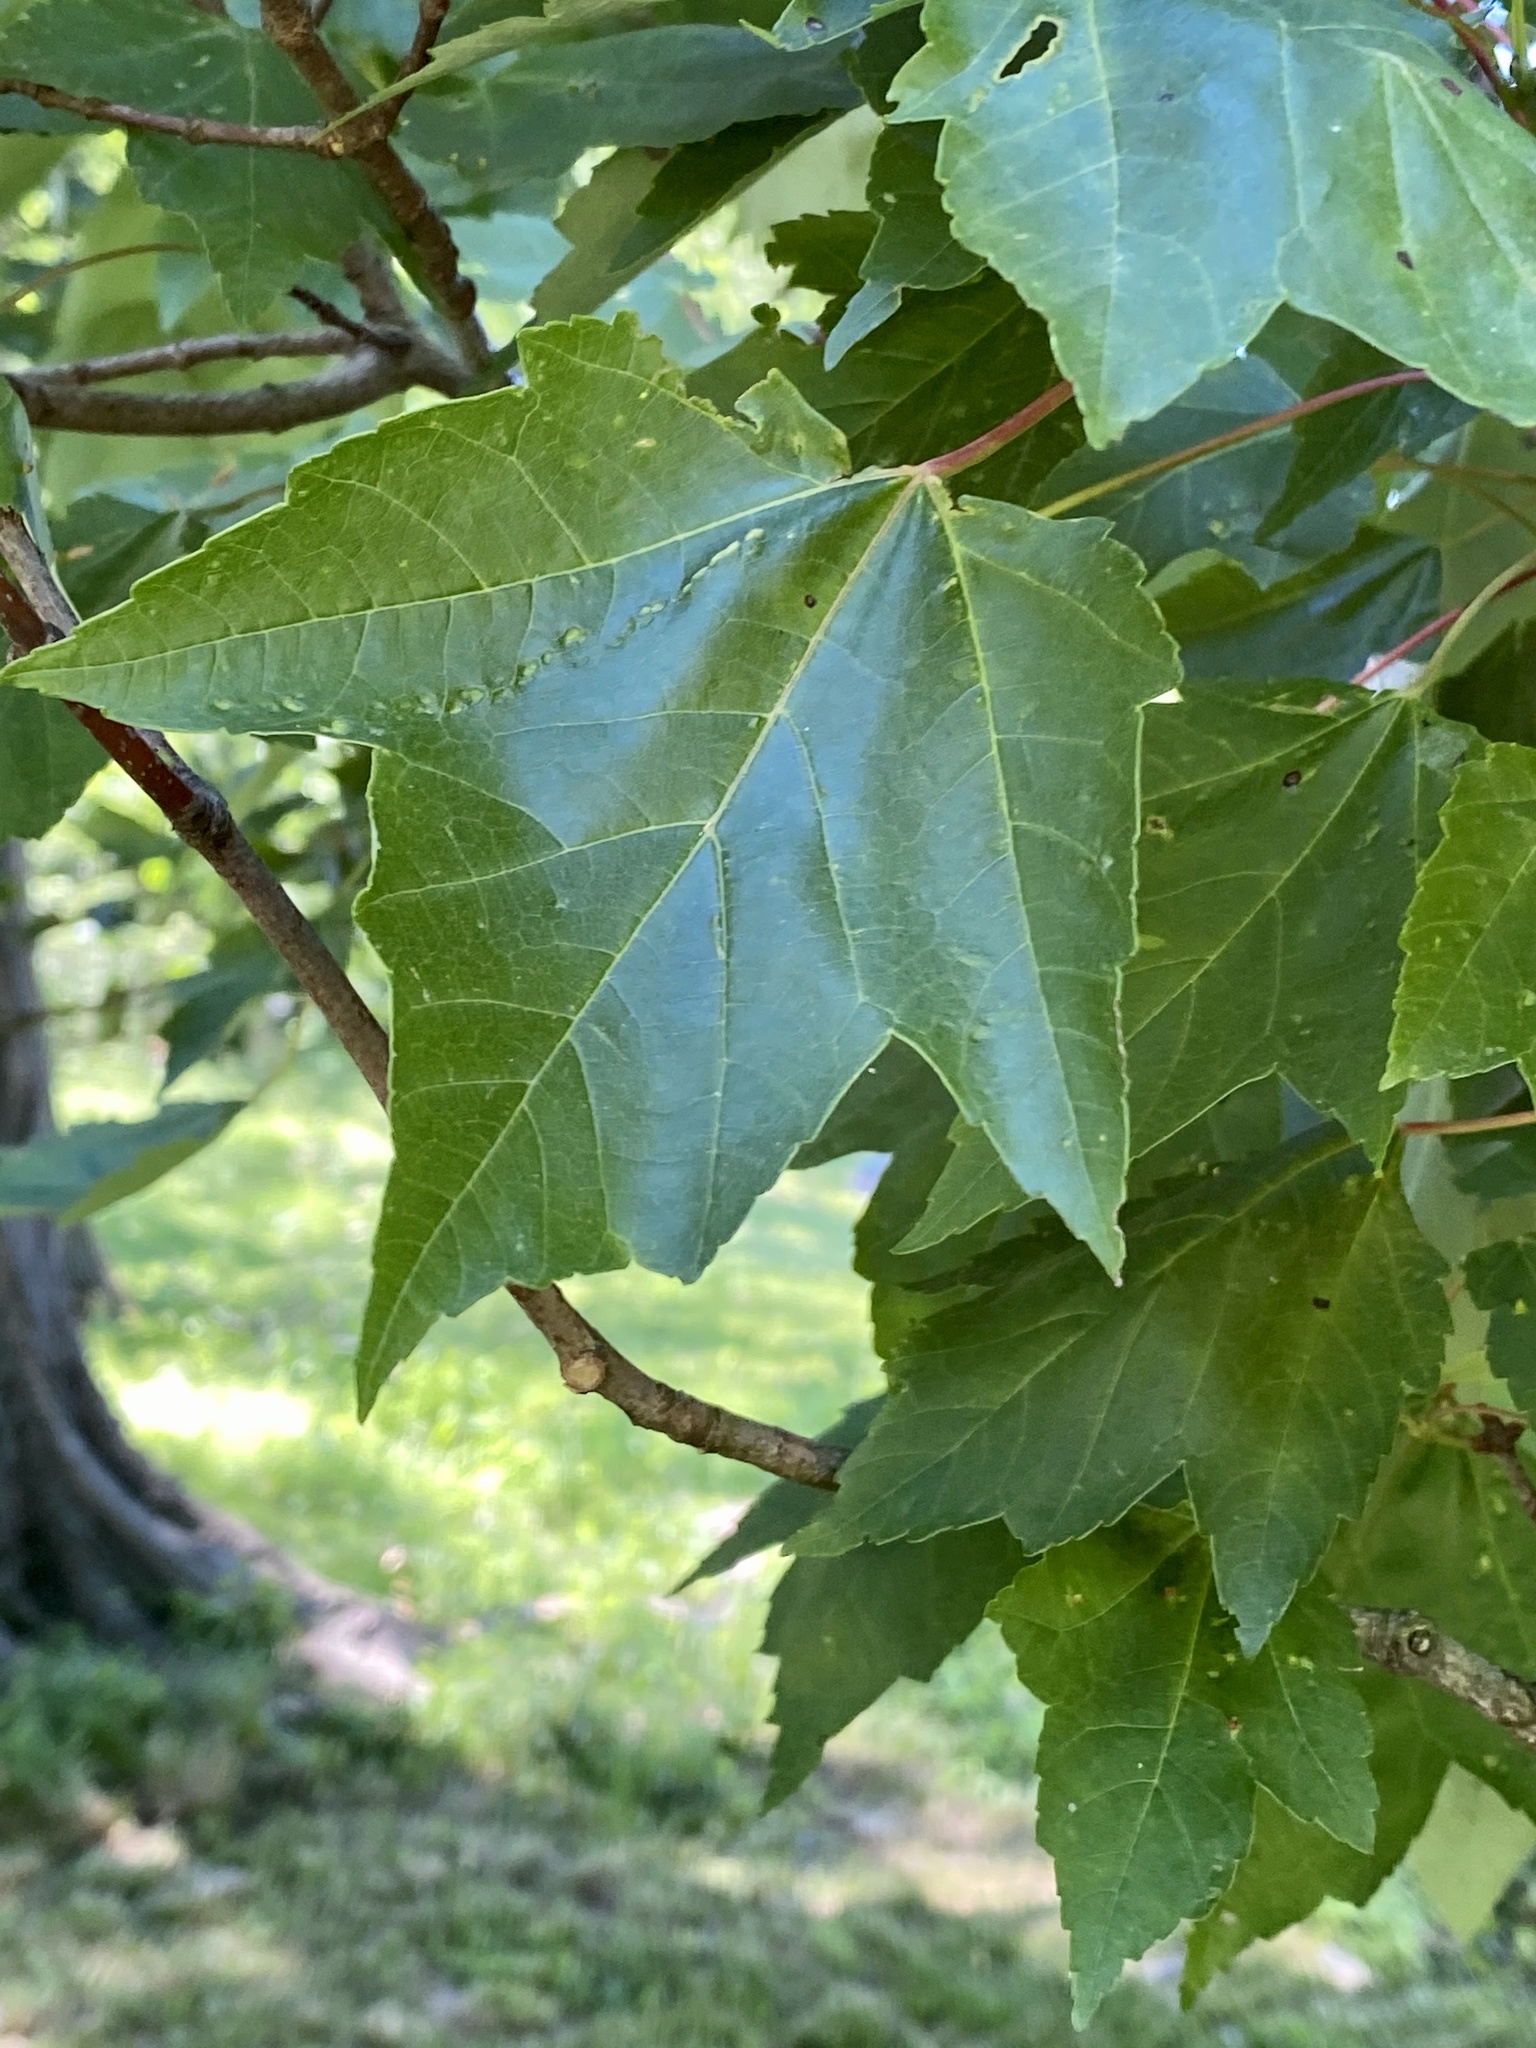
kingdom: Plantae
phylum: Tracheophyta
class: Magnoliopsida
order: Sapindales
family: Sapindaceae
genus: Acer
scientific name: Acer rubrum
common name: Red maple
